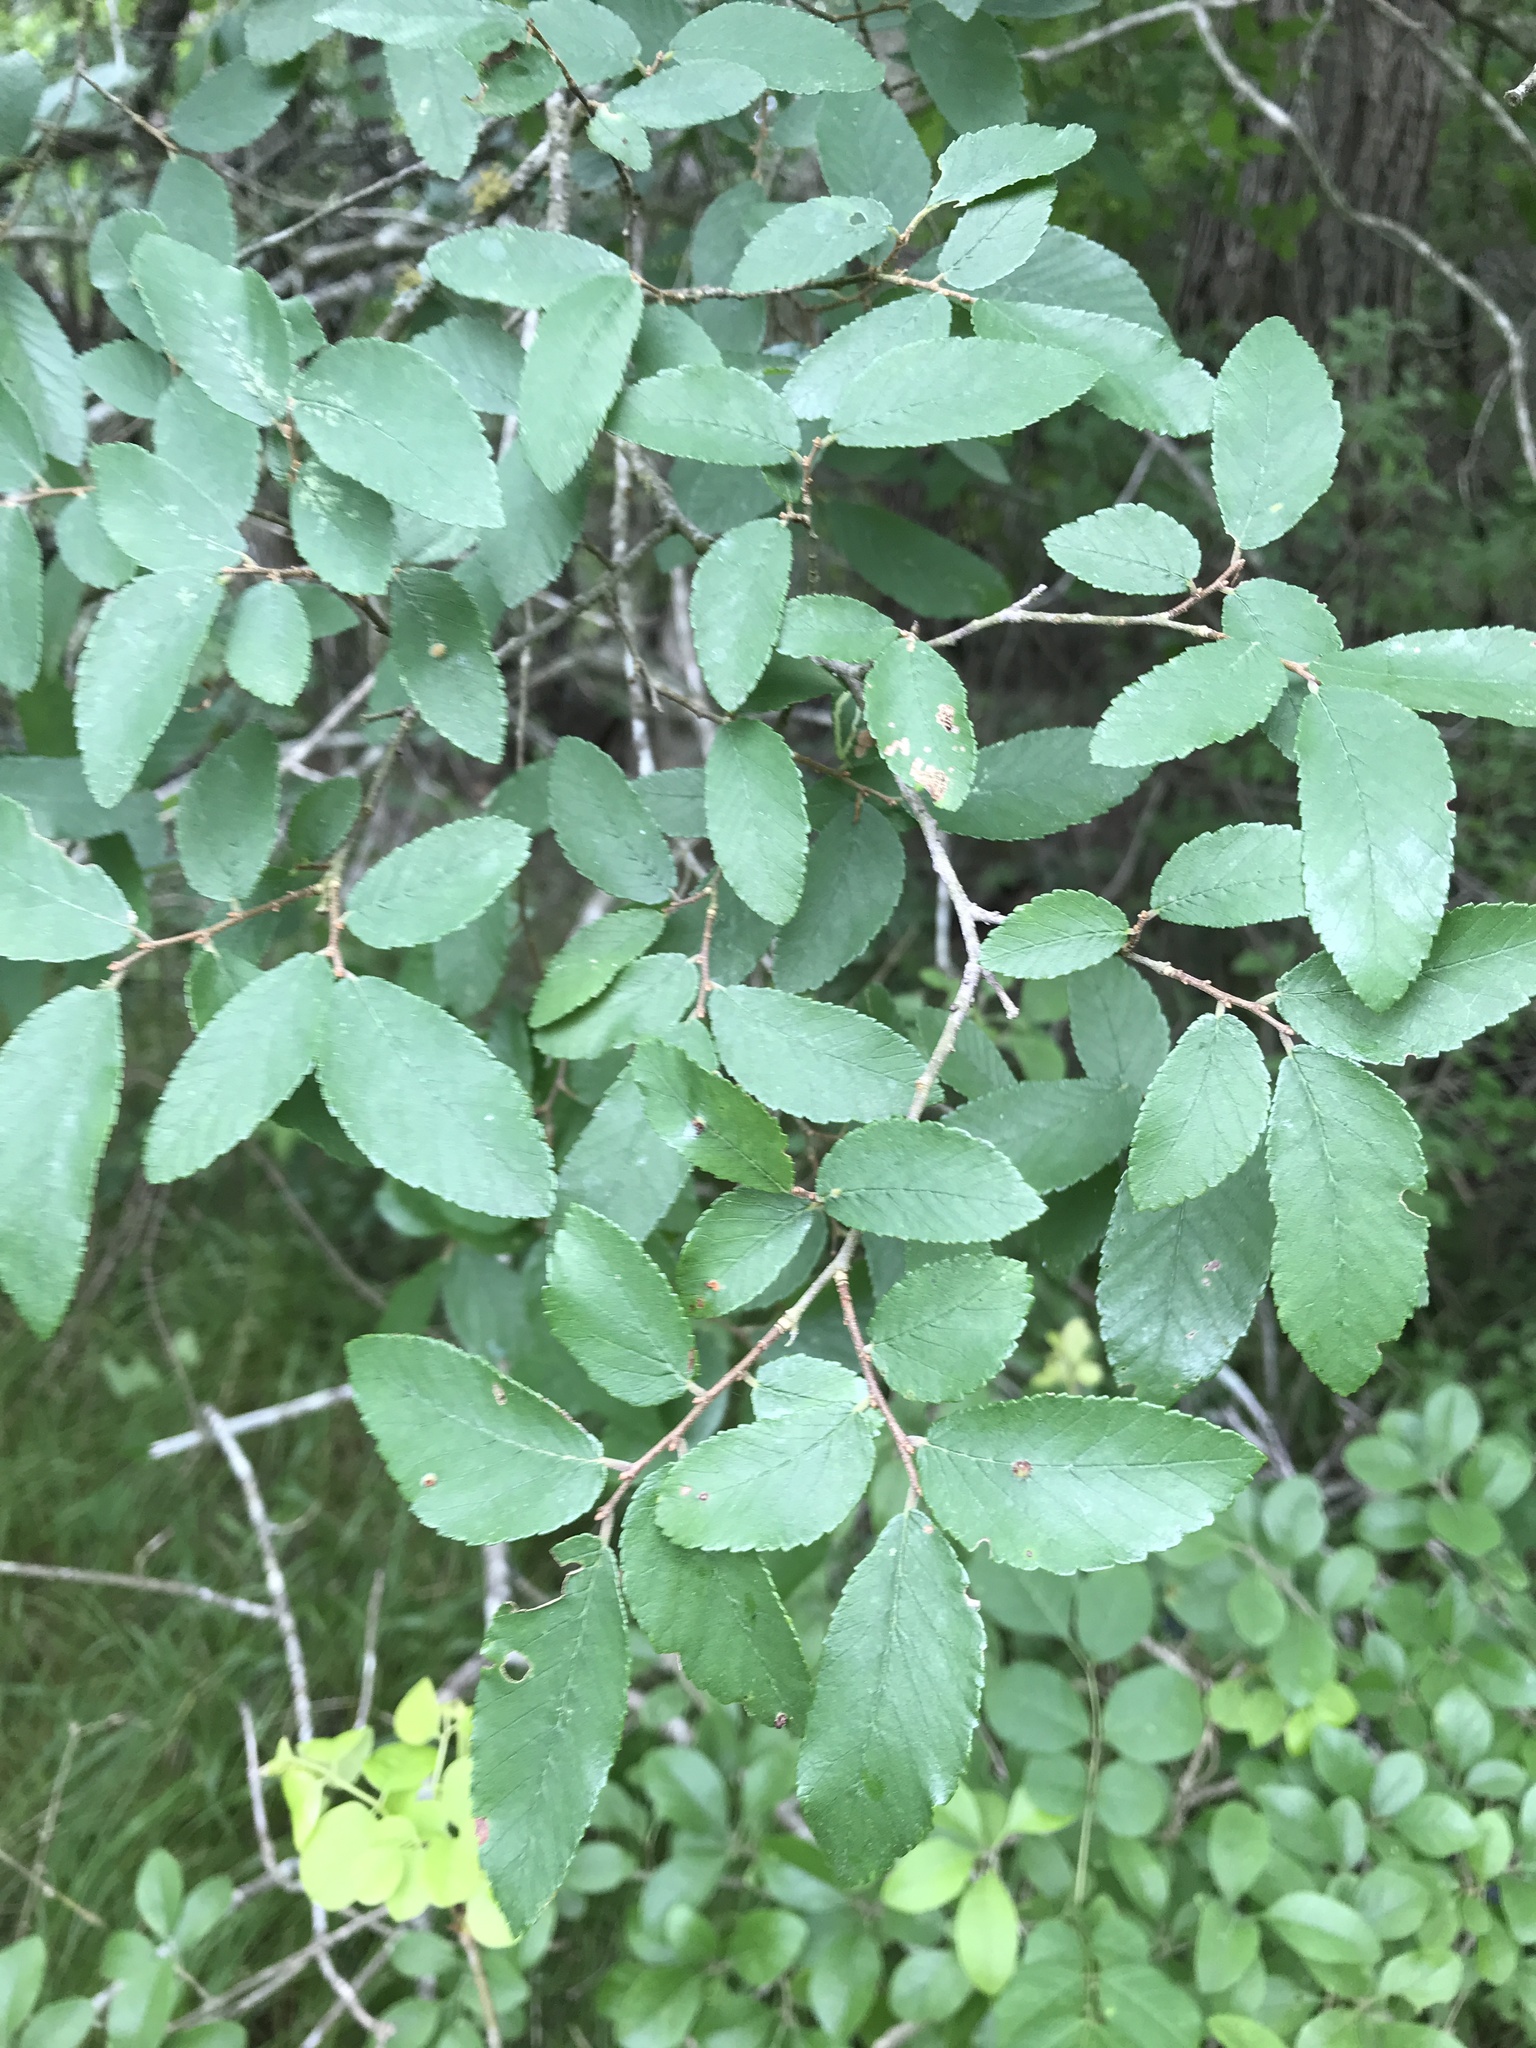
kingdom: Plantae
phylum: Tracheophyta
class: Magnoliopsida
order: Rosales
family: Ulmaceae
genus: Ulmus
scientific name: Ulmus crassifolia
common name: Basket elm
